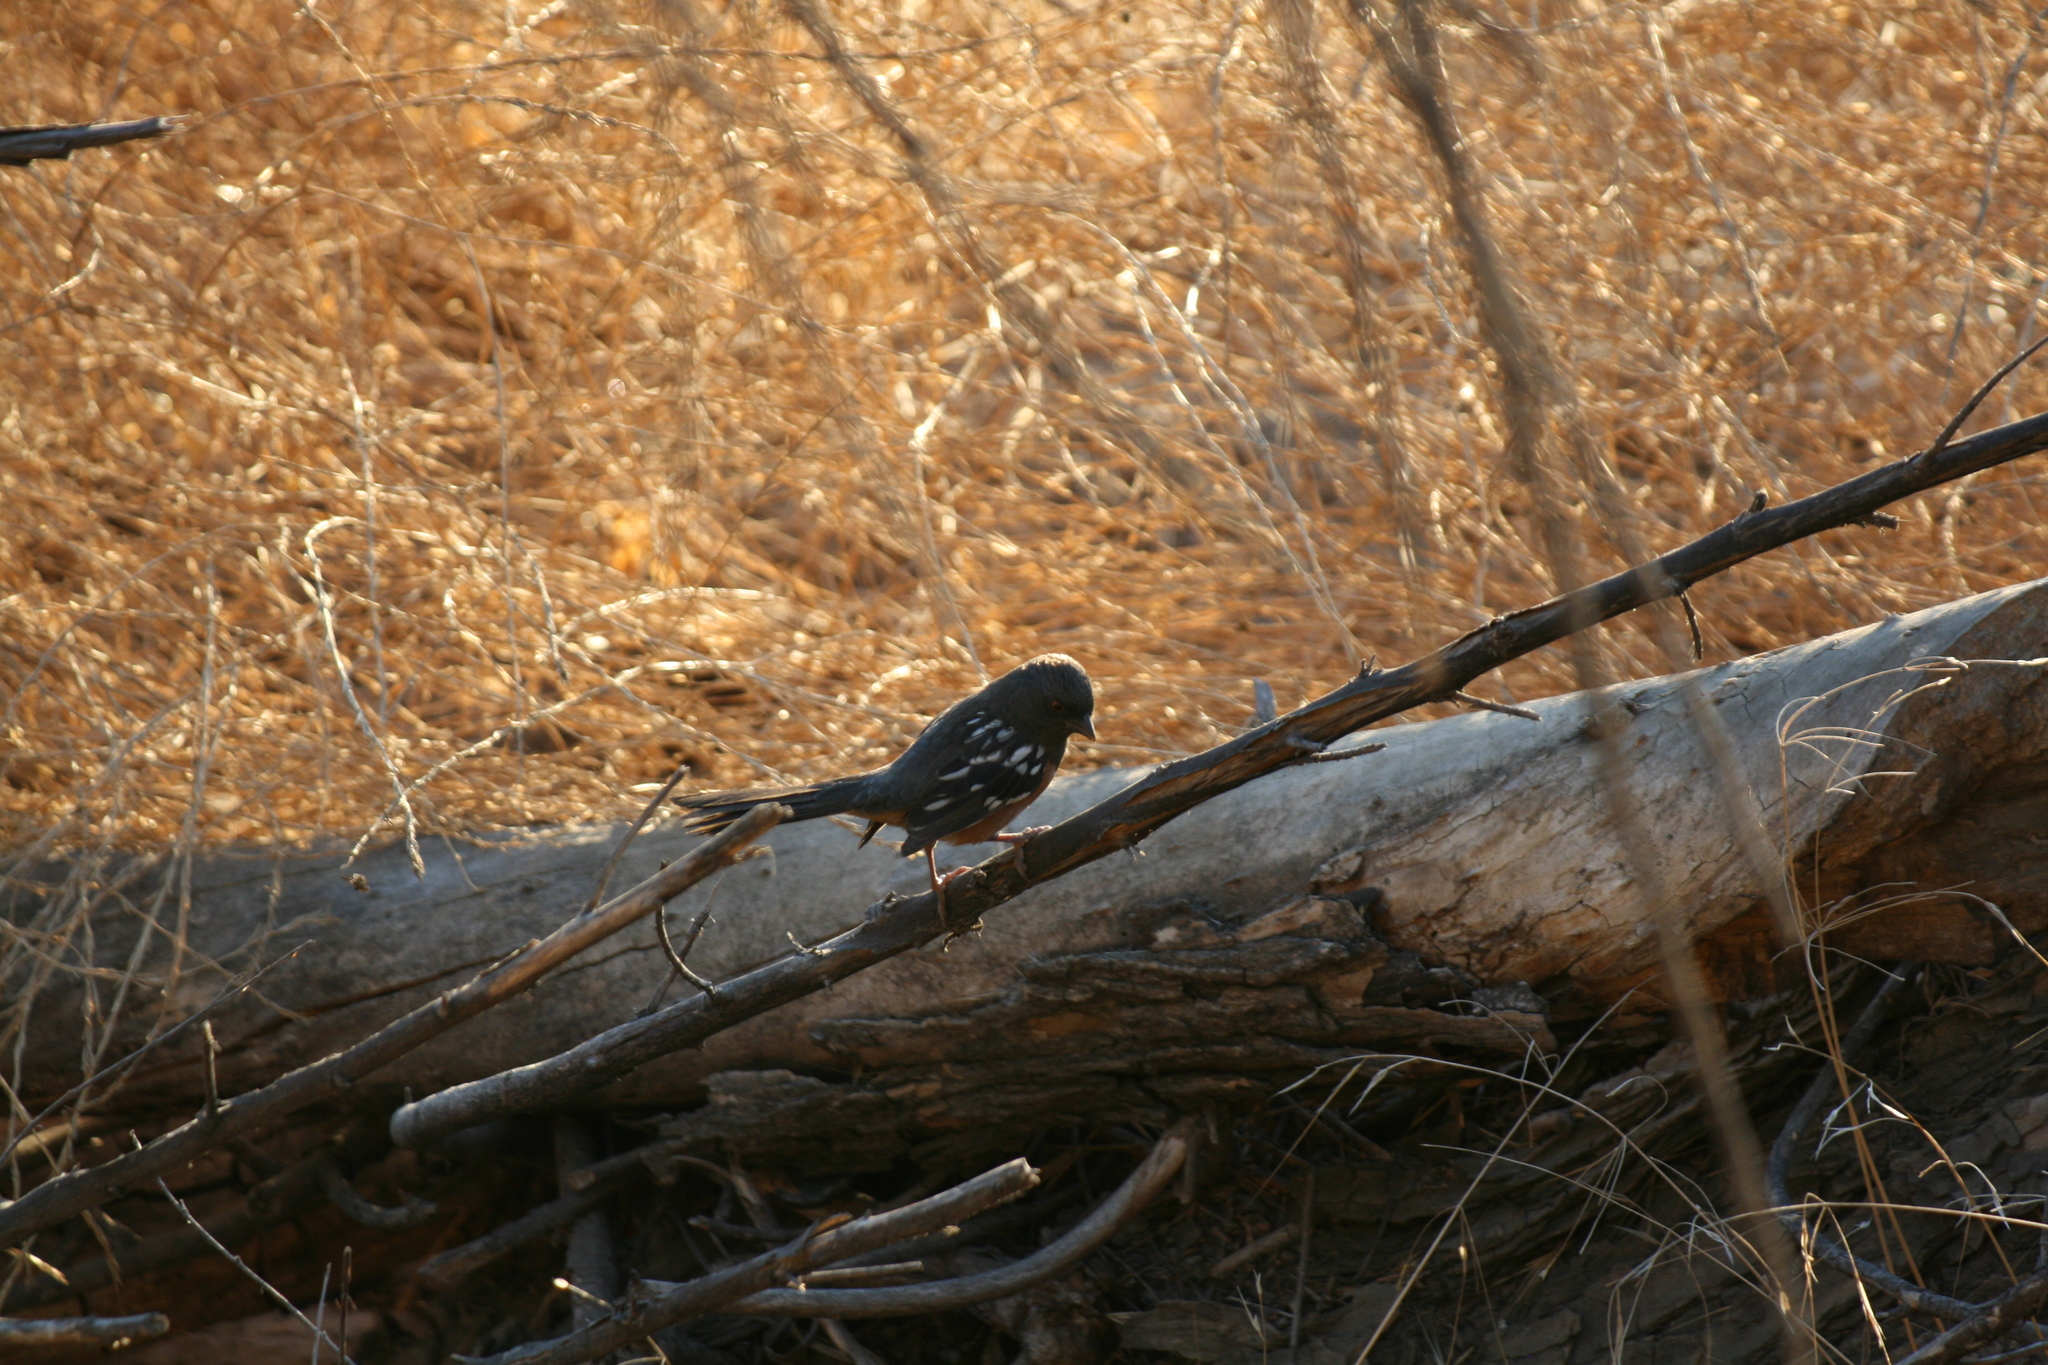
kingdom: Animalia
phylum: Chordata
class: Aves
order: Passeriformes
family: Passerellidae
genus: Pipilo
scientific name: Pipilo maculatus
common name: Spotted towhee
